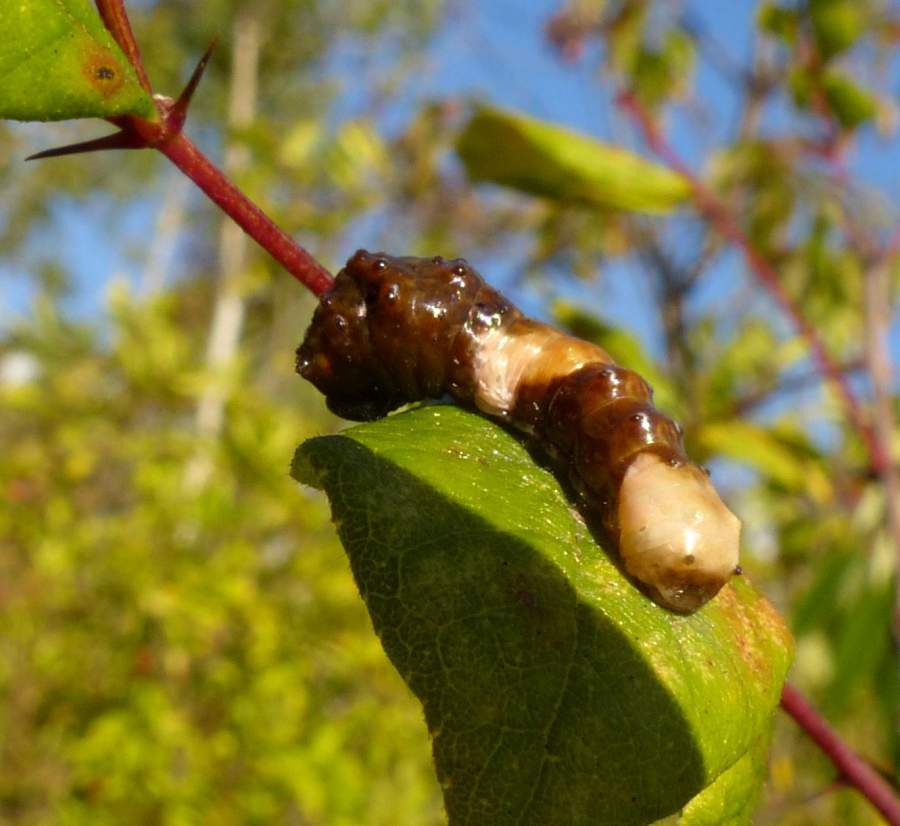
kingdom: Animalia
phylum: Arthropoda
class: Insecta
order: Lepidoptera
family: Papilionidae
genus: Papilio
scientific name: Papilio cresphontes
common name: Giant swallowtail
